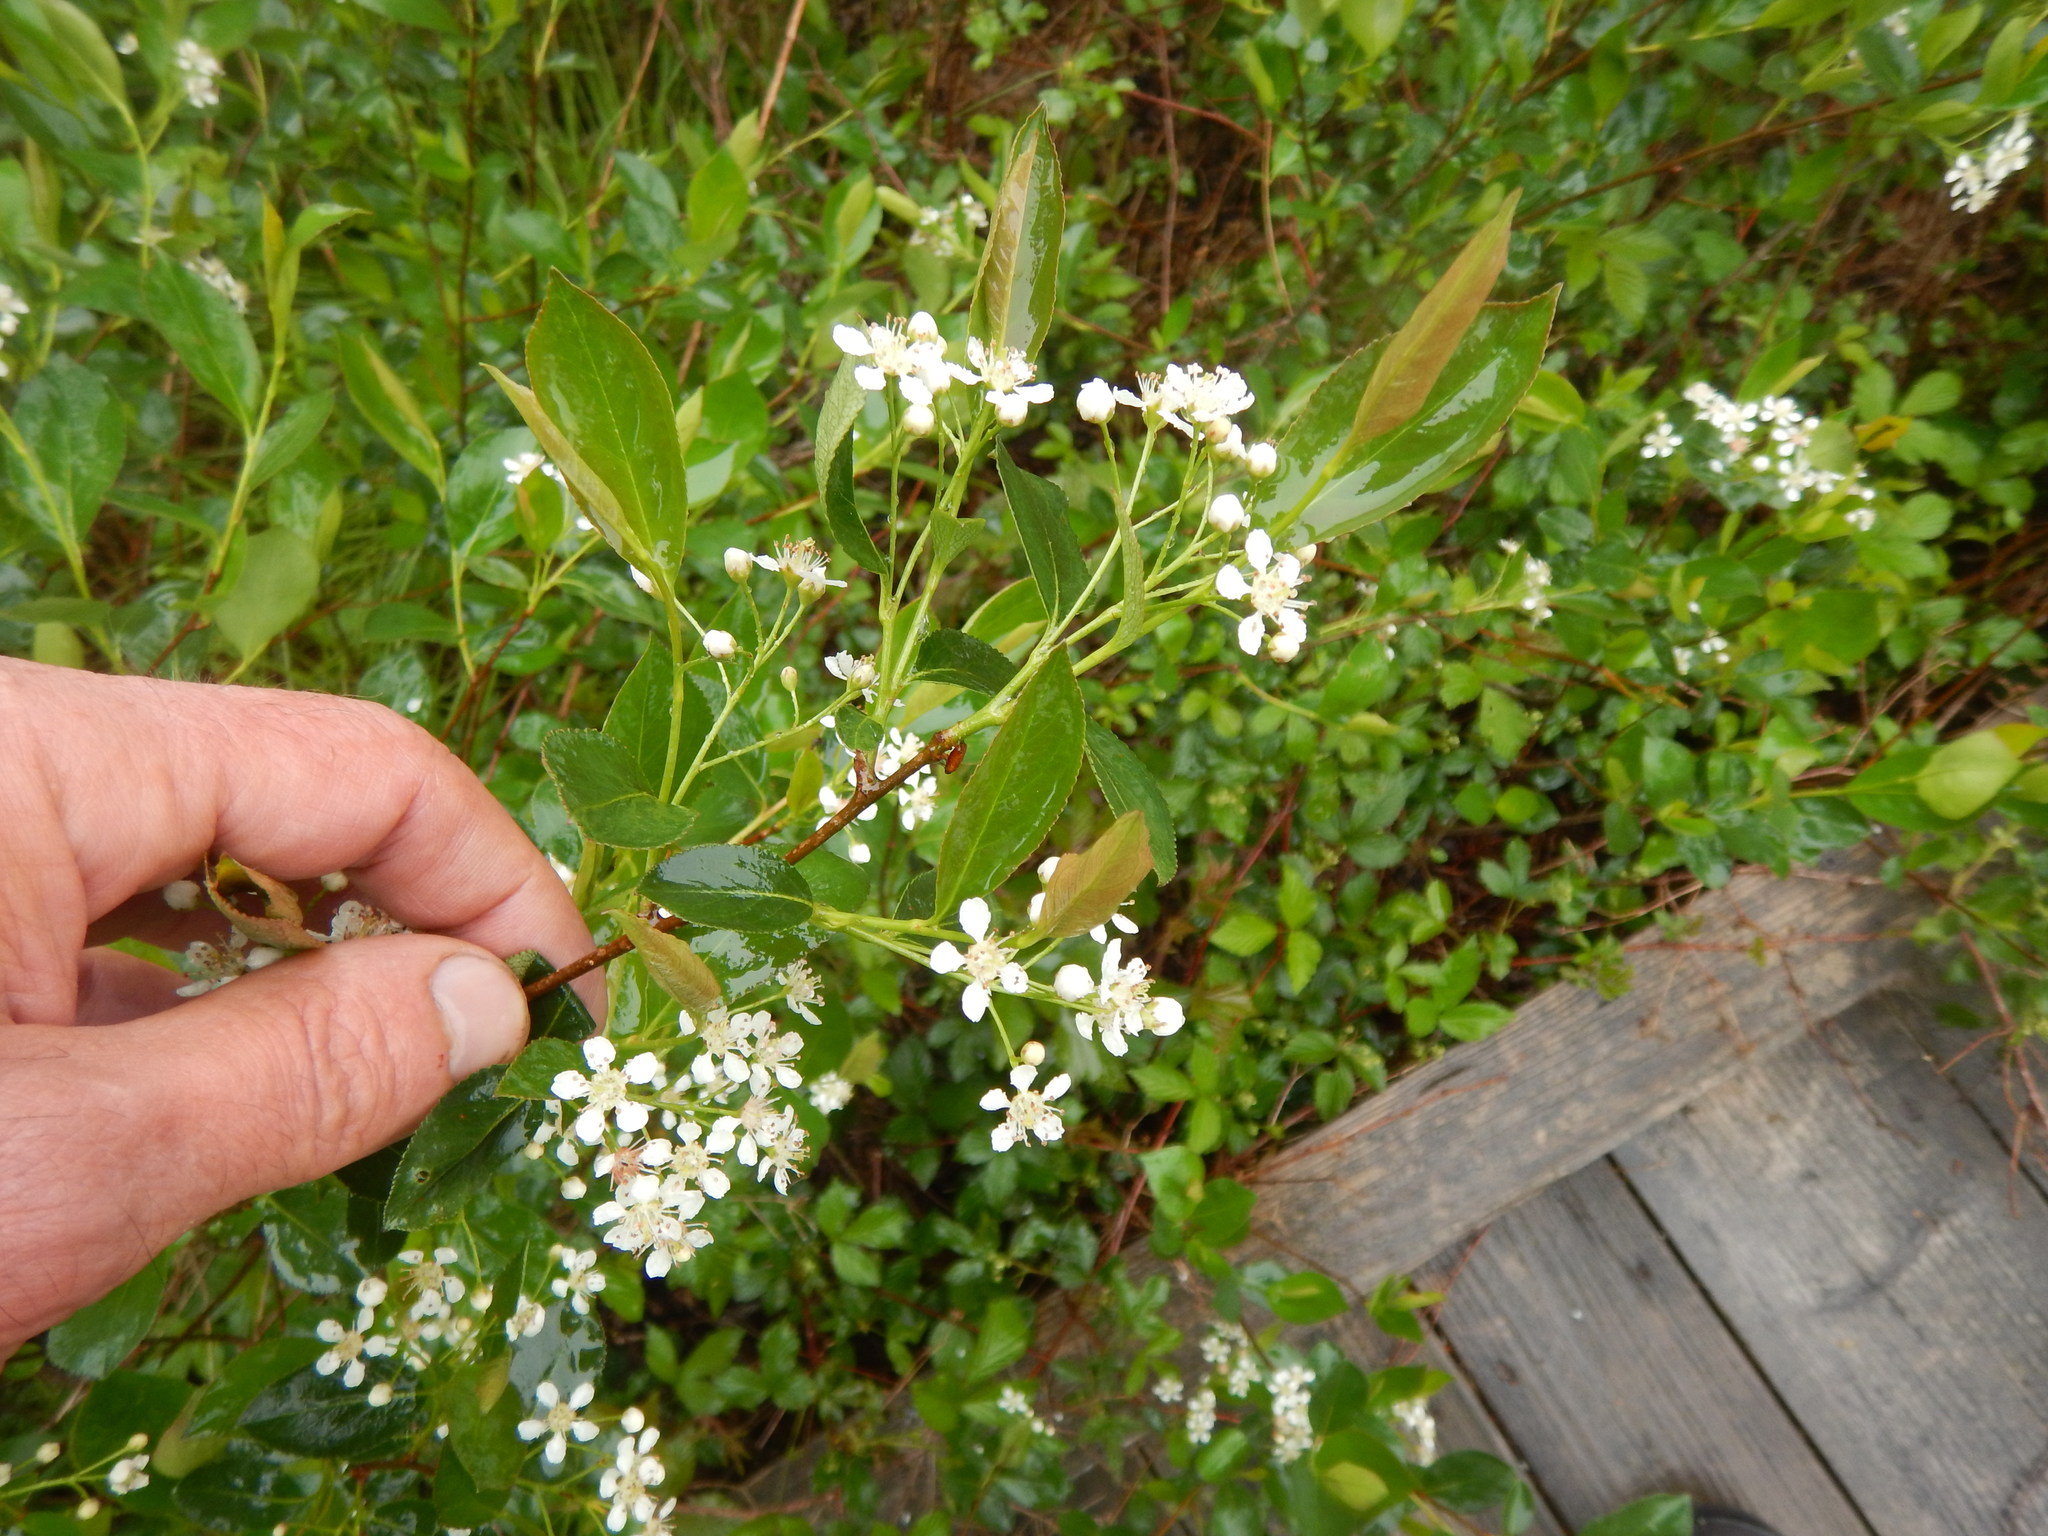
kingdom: Plantae
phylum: Tracheophyta
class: Magnoliopsida
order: Rosales
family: Rosaceae
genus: Aronia
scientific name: Aronia melanocarpa
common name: Black chokeberry
